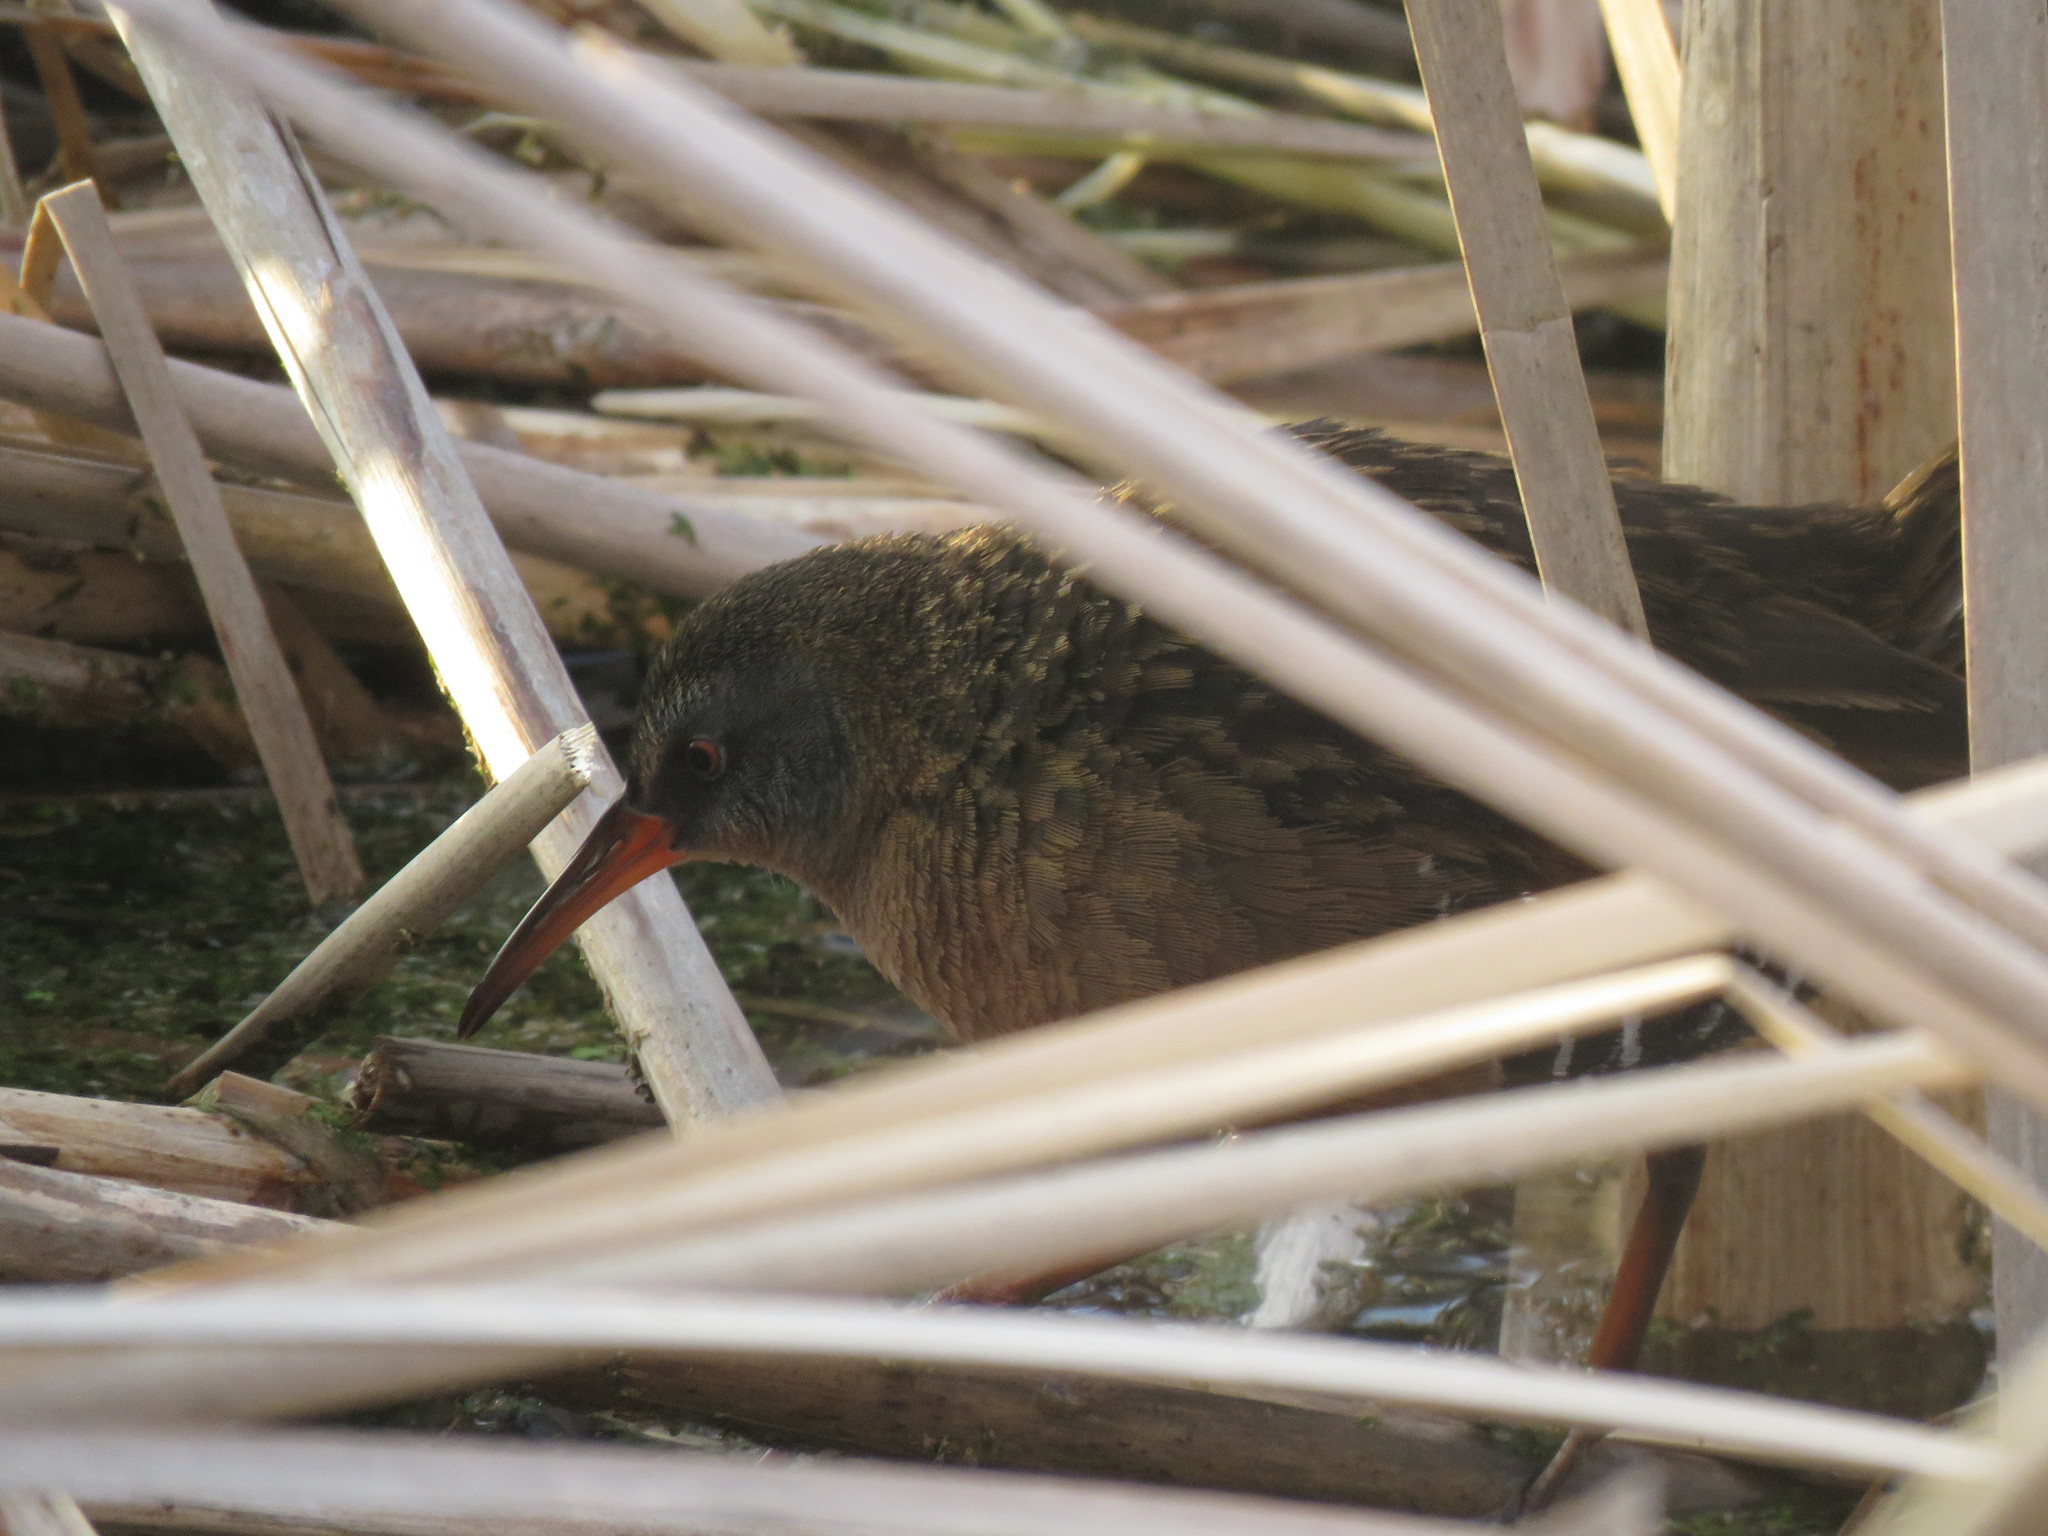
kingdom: Animalia
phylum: Chordata
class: Aves
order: Gruiformes
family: Rallidae
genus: Rallus
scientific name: Rallus limicola
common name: Virginia rail
